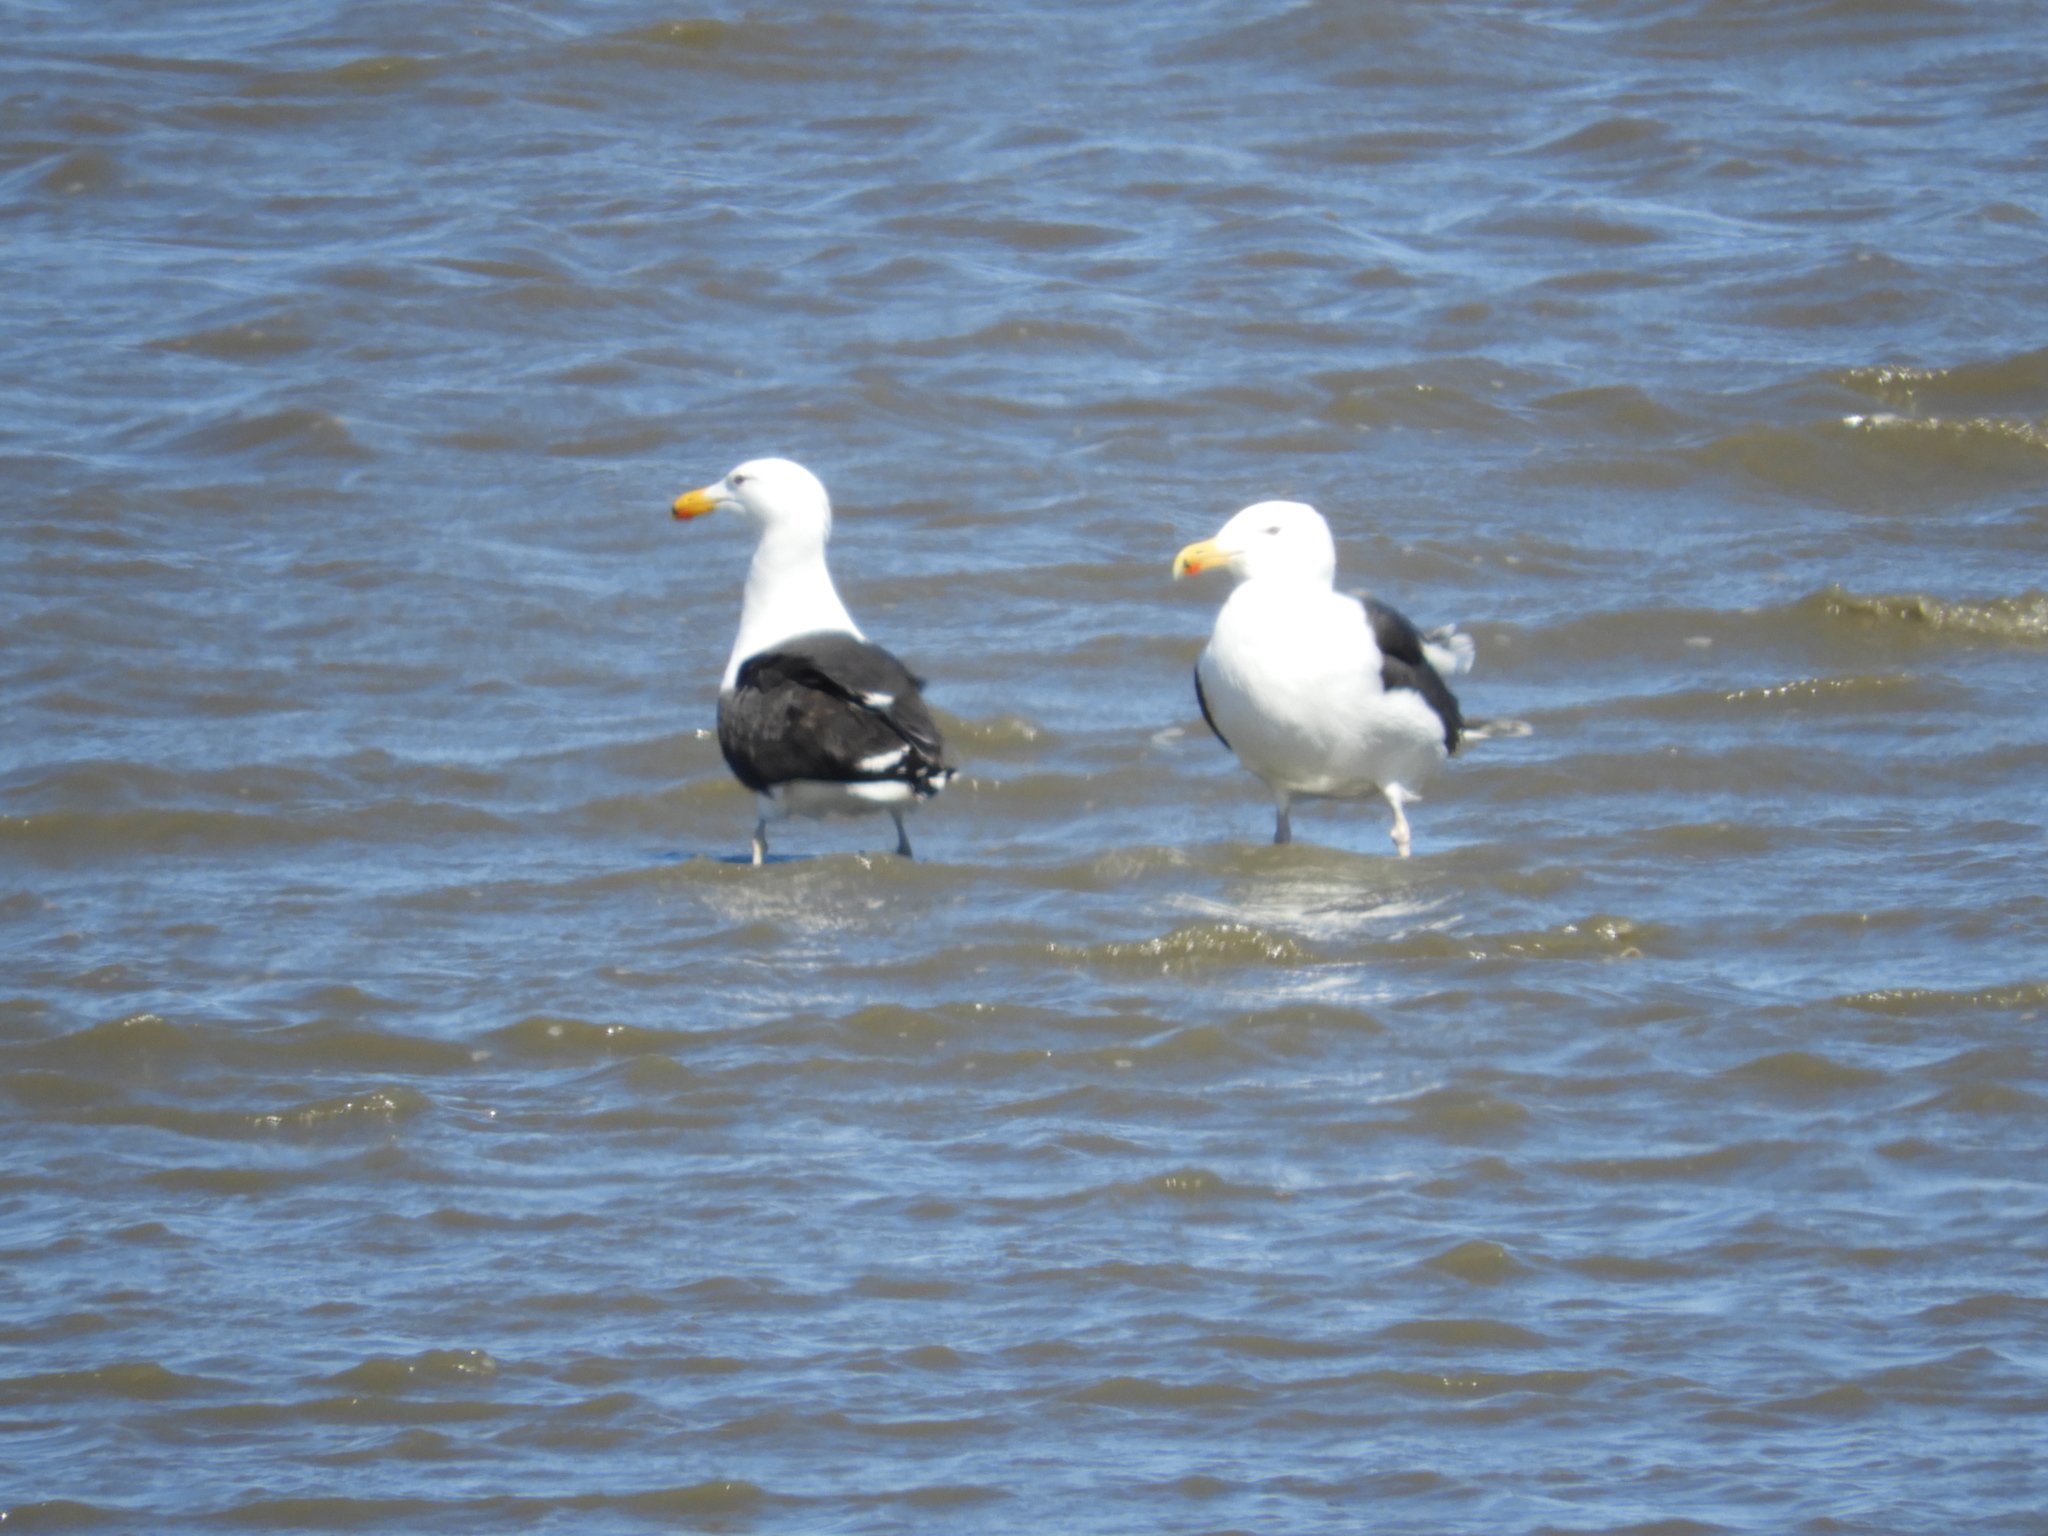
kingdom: Animalia
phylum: Chordata
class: Aves
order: Charadriiformes
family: Laridae
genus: Larus
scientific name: Larus marinus
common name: Great black-backed gull
